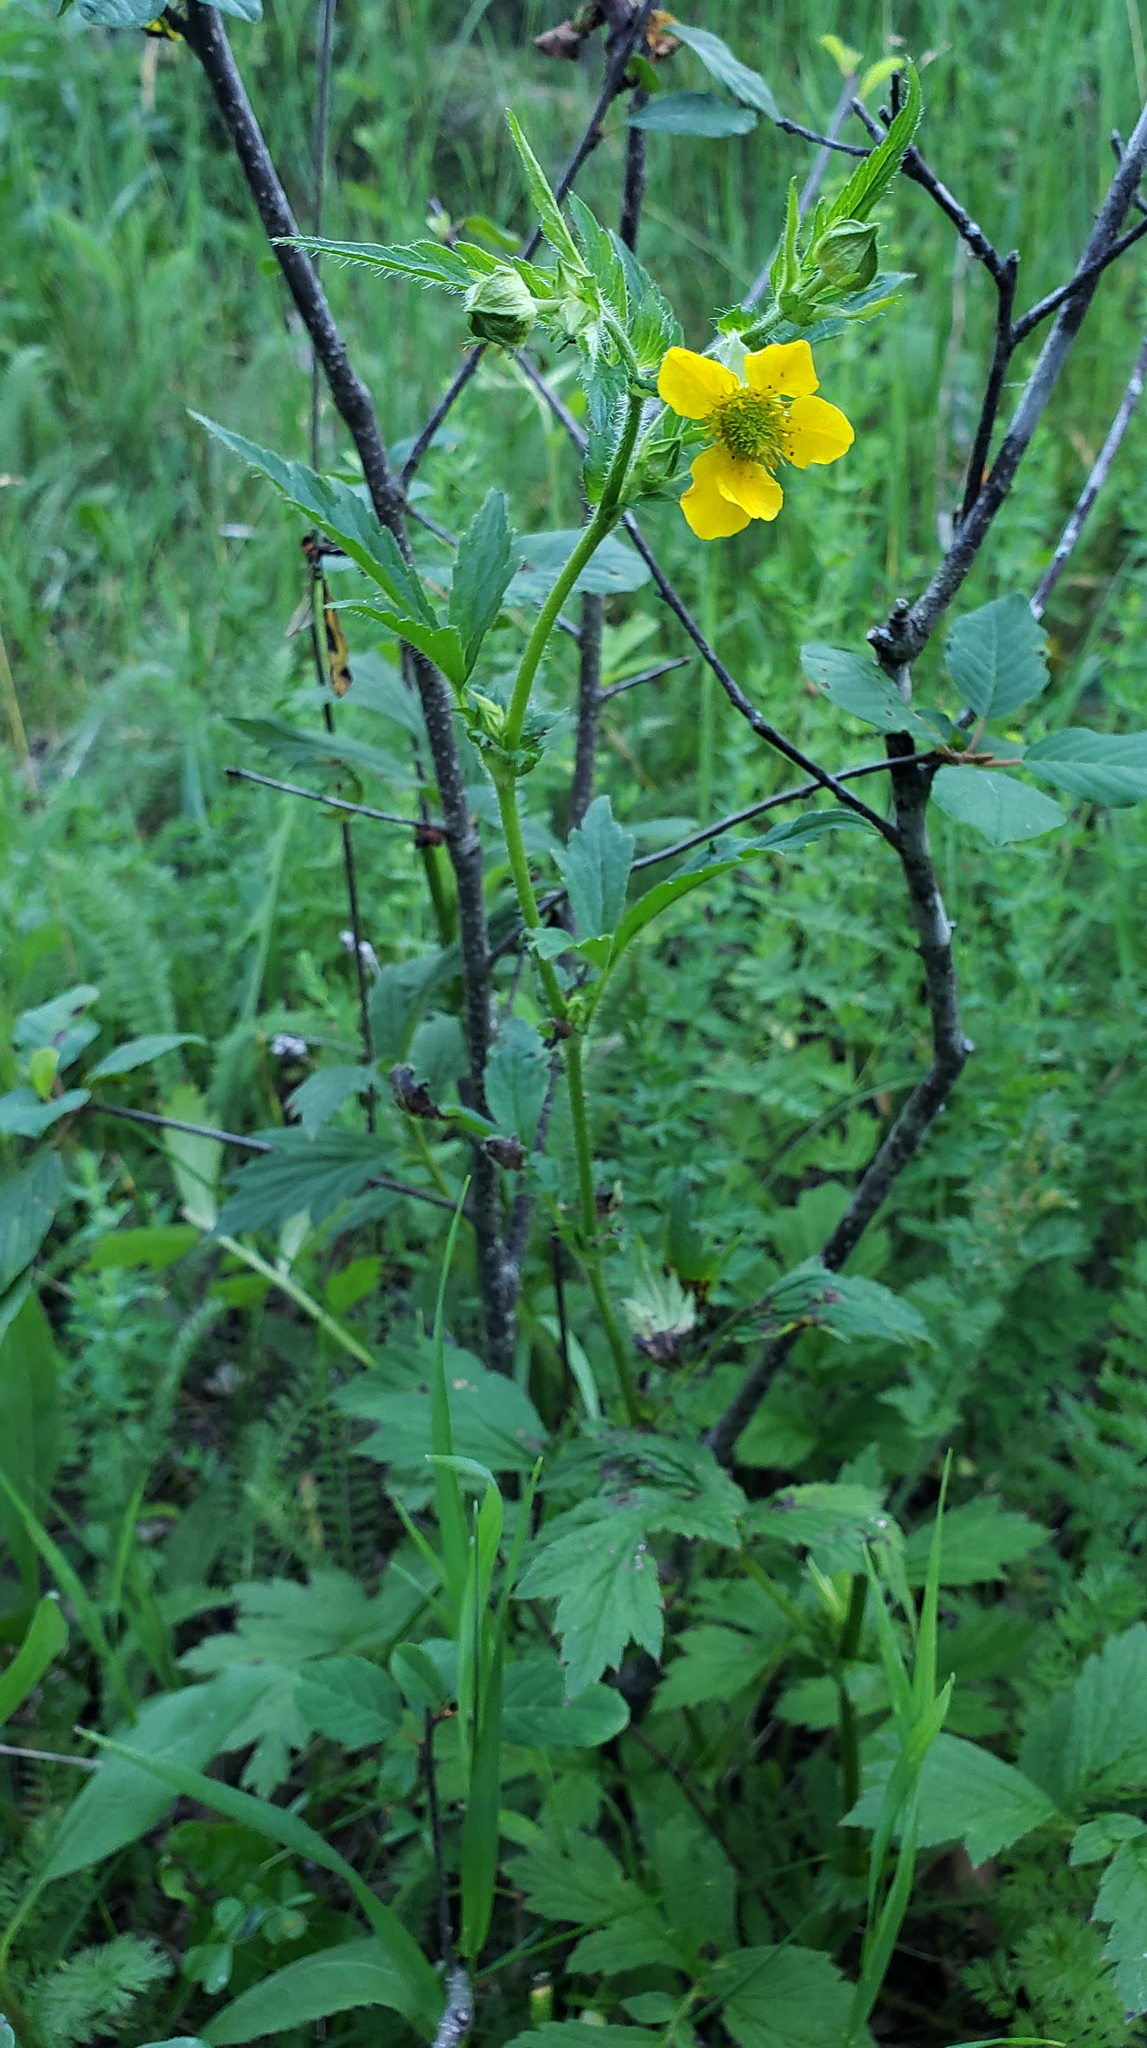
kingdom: Plantae
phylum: Tracheophyta
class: Magnoliopsida
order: Rosales
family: Rosaceae
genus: Geum
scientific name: Geum aleppicum
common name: Yellow avens
